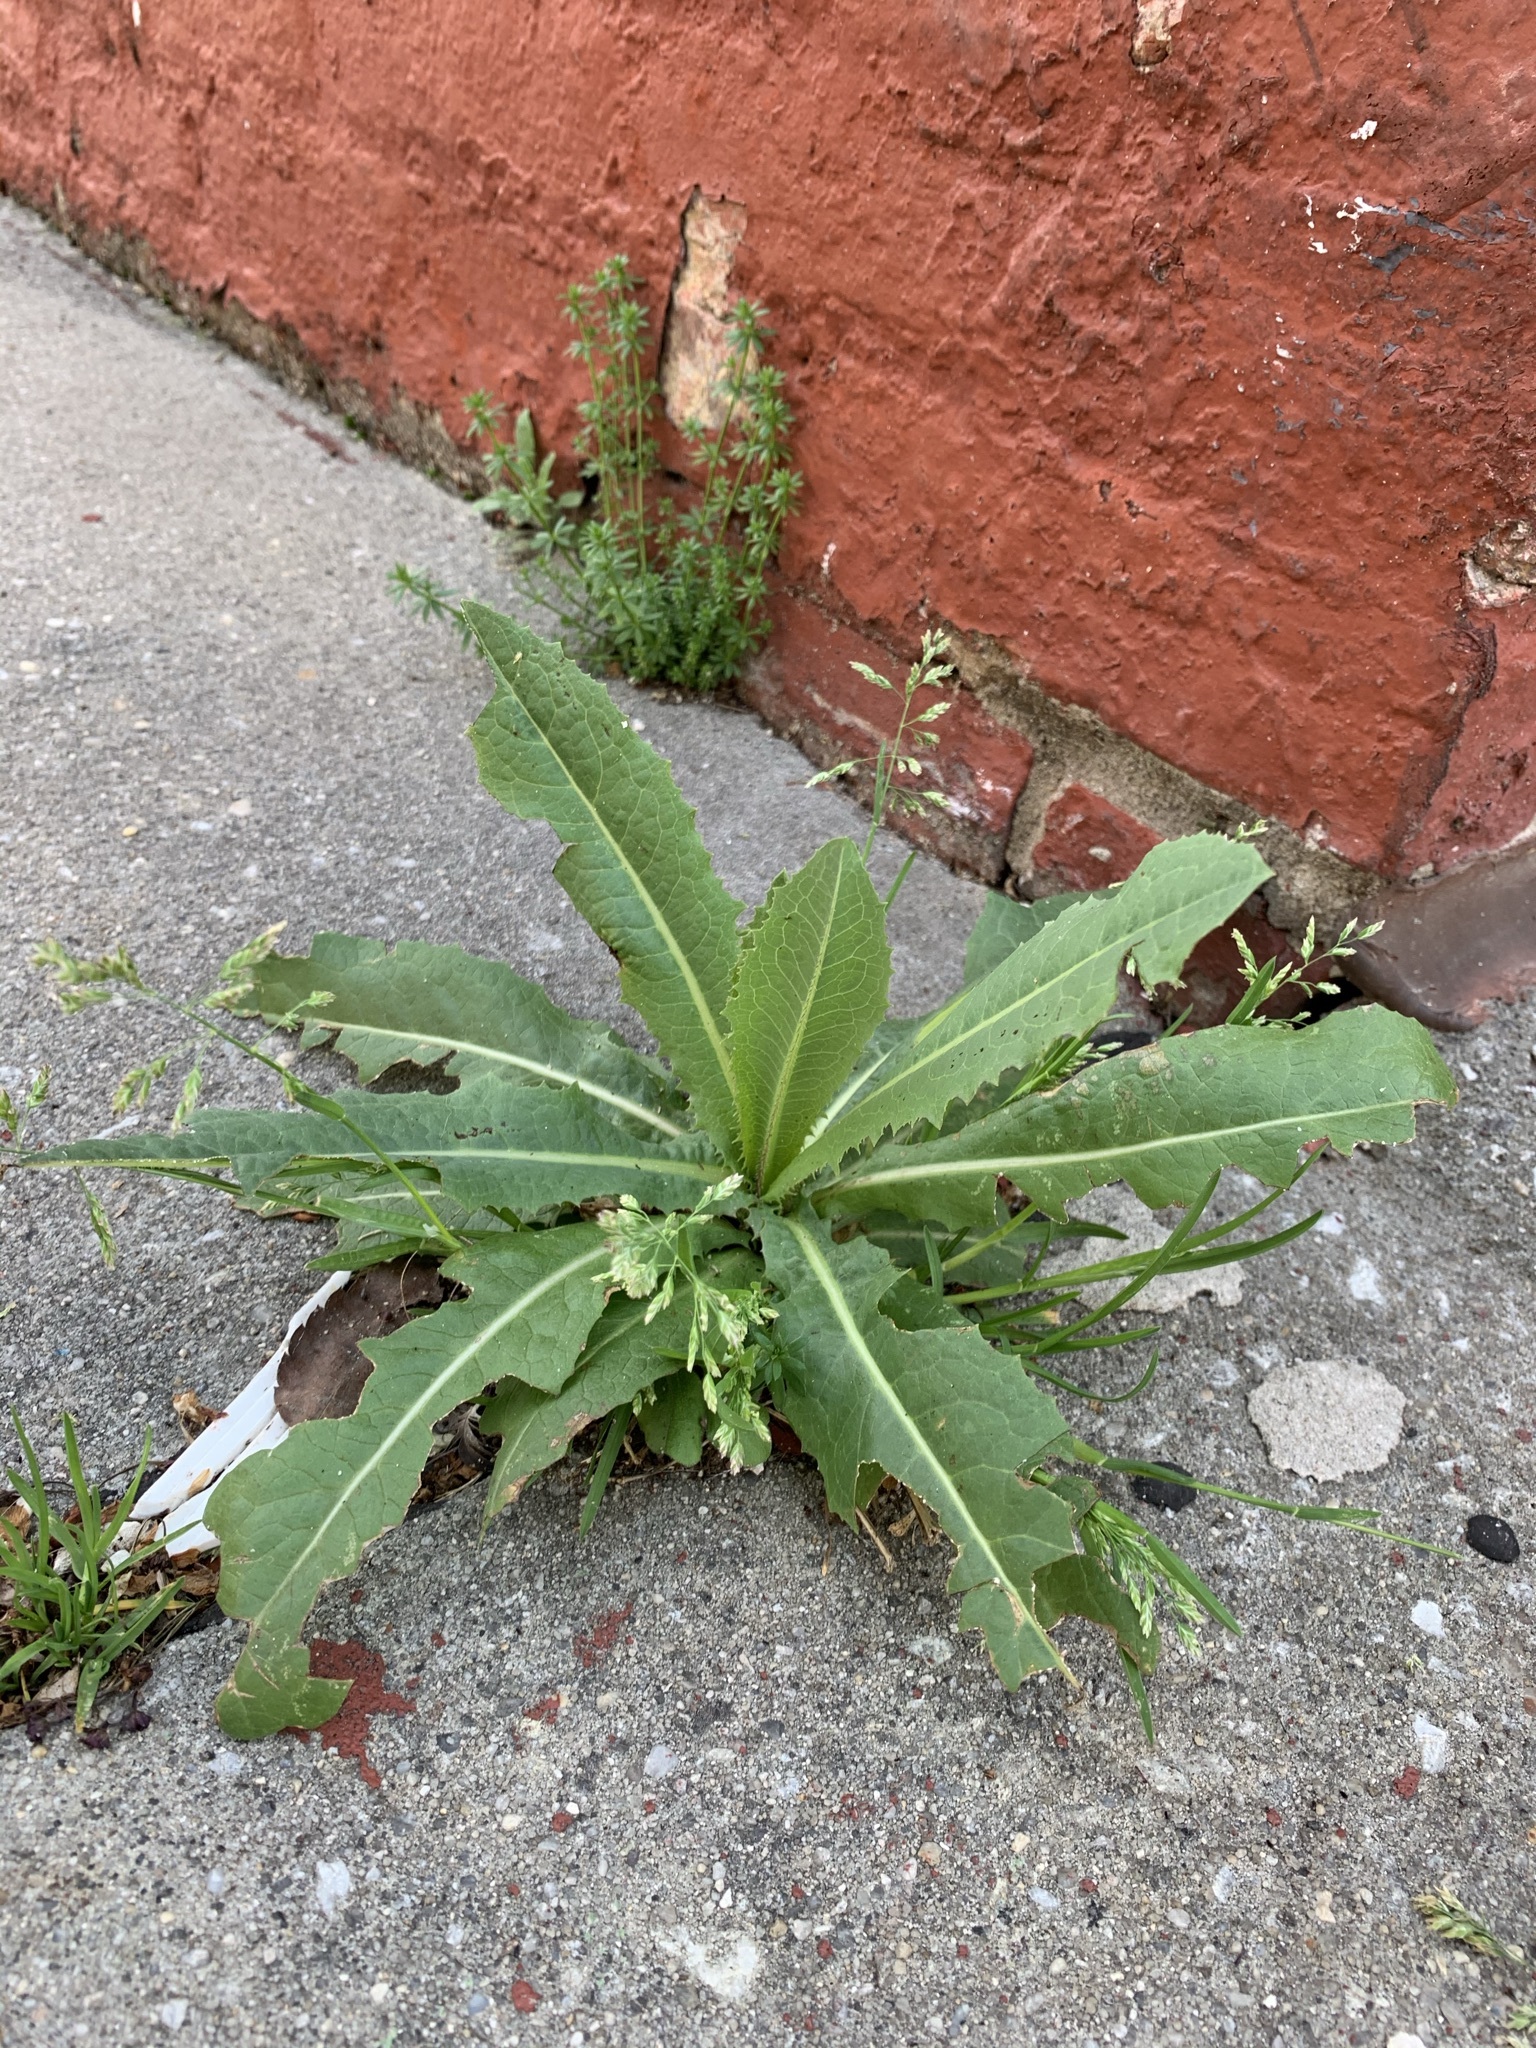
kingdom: Plantae
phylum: Tracheophyta
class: Magnoliopsida
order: Asterales
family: Asteraceae
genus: Lactuca
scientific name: Lactuca serriola
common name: Prickly lettuce
